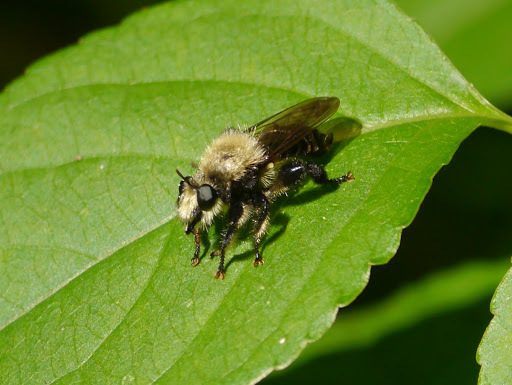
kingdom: Animalia
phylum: Arthropoda
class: Insecta
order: Diptera
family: Asilidae
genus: Laphria
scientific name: Laphria flavicollis
